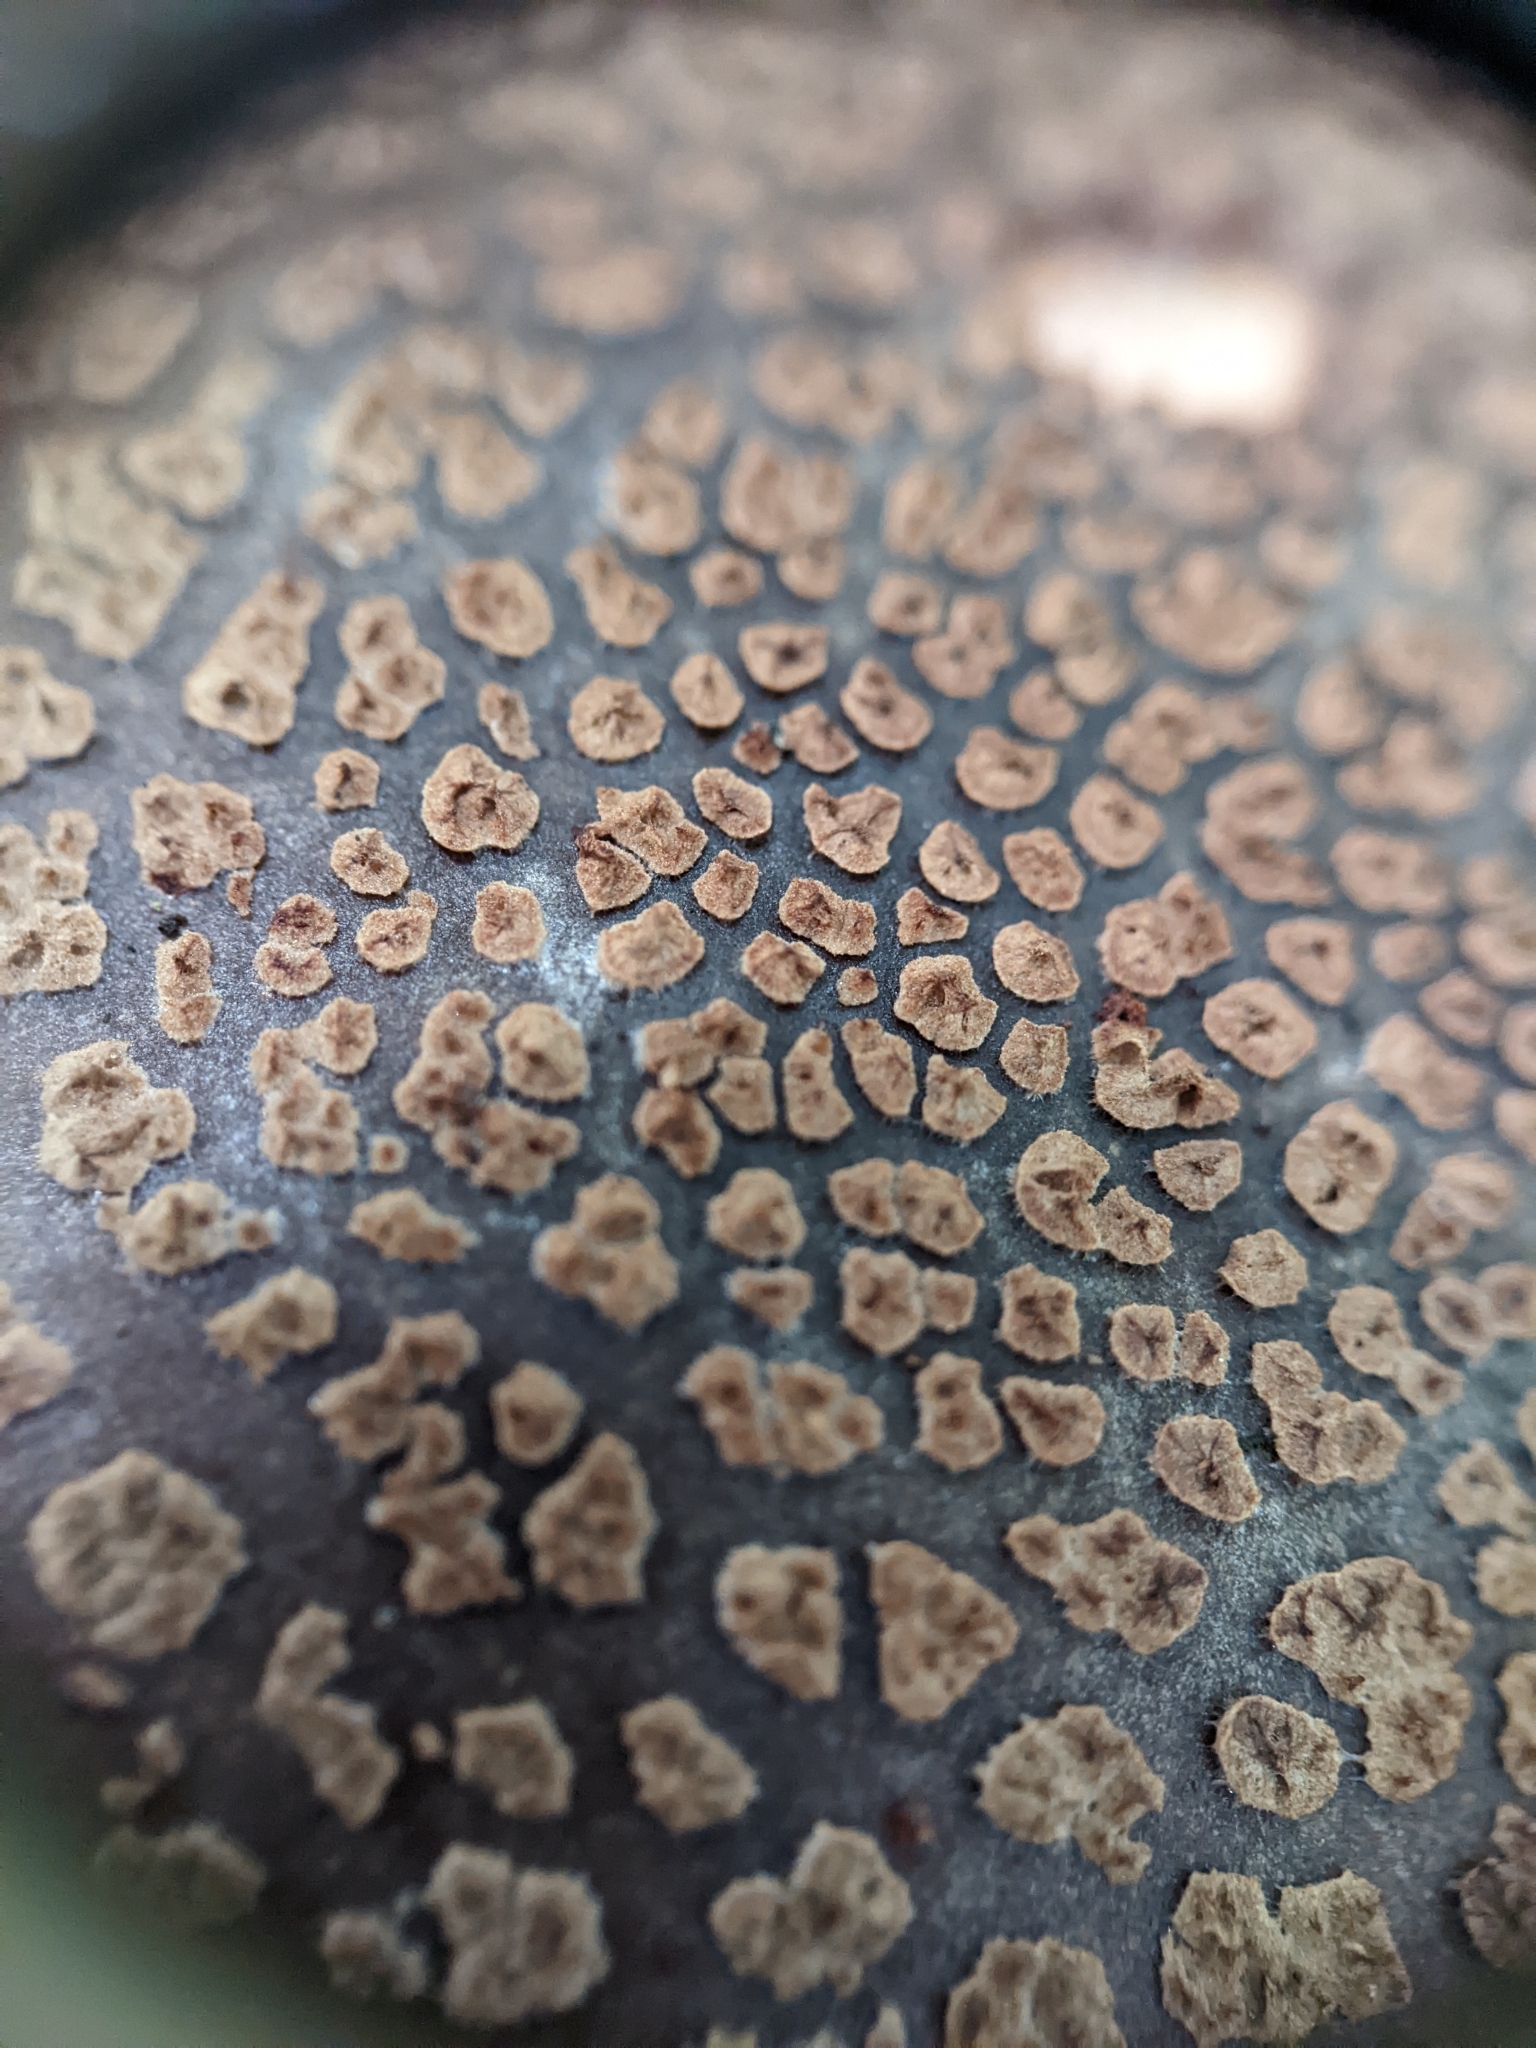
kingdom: Fungi
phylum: Basidiomycota
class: Agaricomycetes
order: Agaricales
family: Amanitaceae
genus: Amanita
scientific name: Amanita rubescens
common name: Blusher
